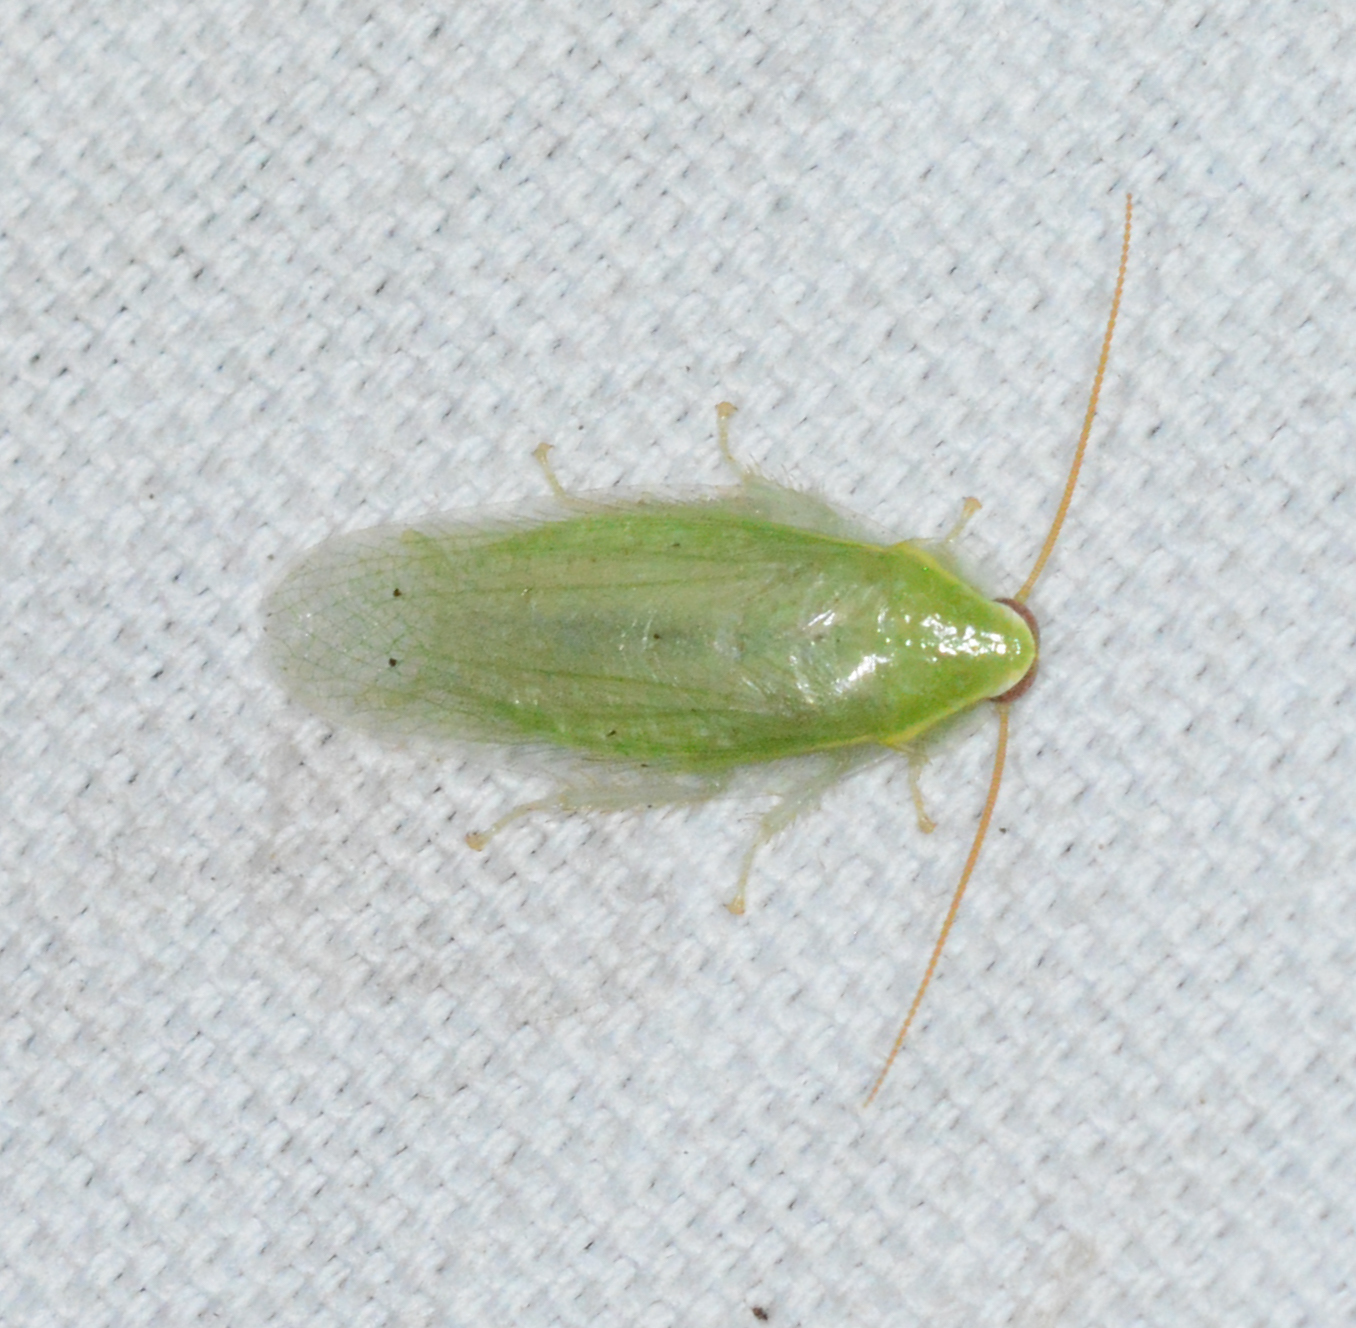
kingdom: Animalia
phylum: Arthropoda
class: Insecta
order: Blattodea
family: Blaberidae
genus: Panchlora
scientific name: Panchlora nivea
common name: Cuban cockroach
